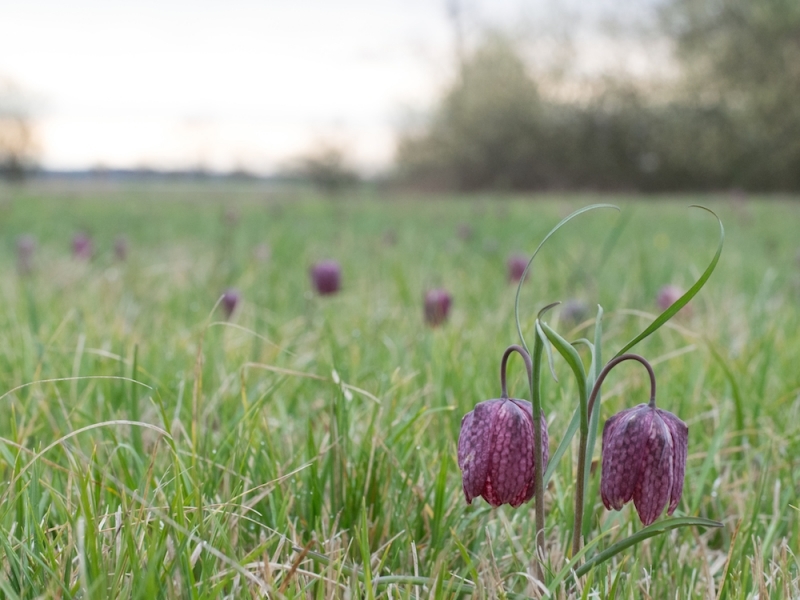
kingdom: Plantae
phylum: Tracheophyta
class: Liliopsida
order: Liliales
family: Liliaceae
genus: Fritillaria
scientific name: Fritillaria meleagris
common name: Fritillary
